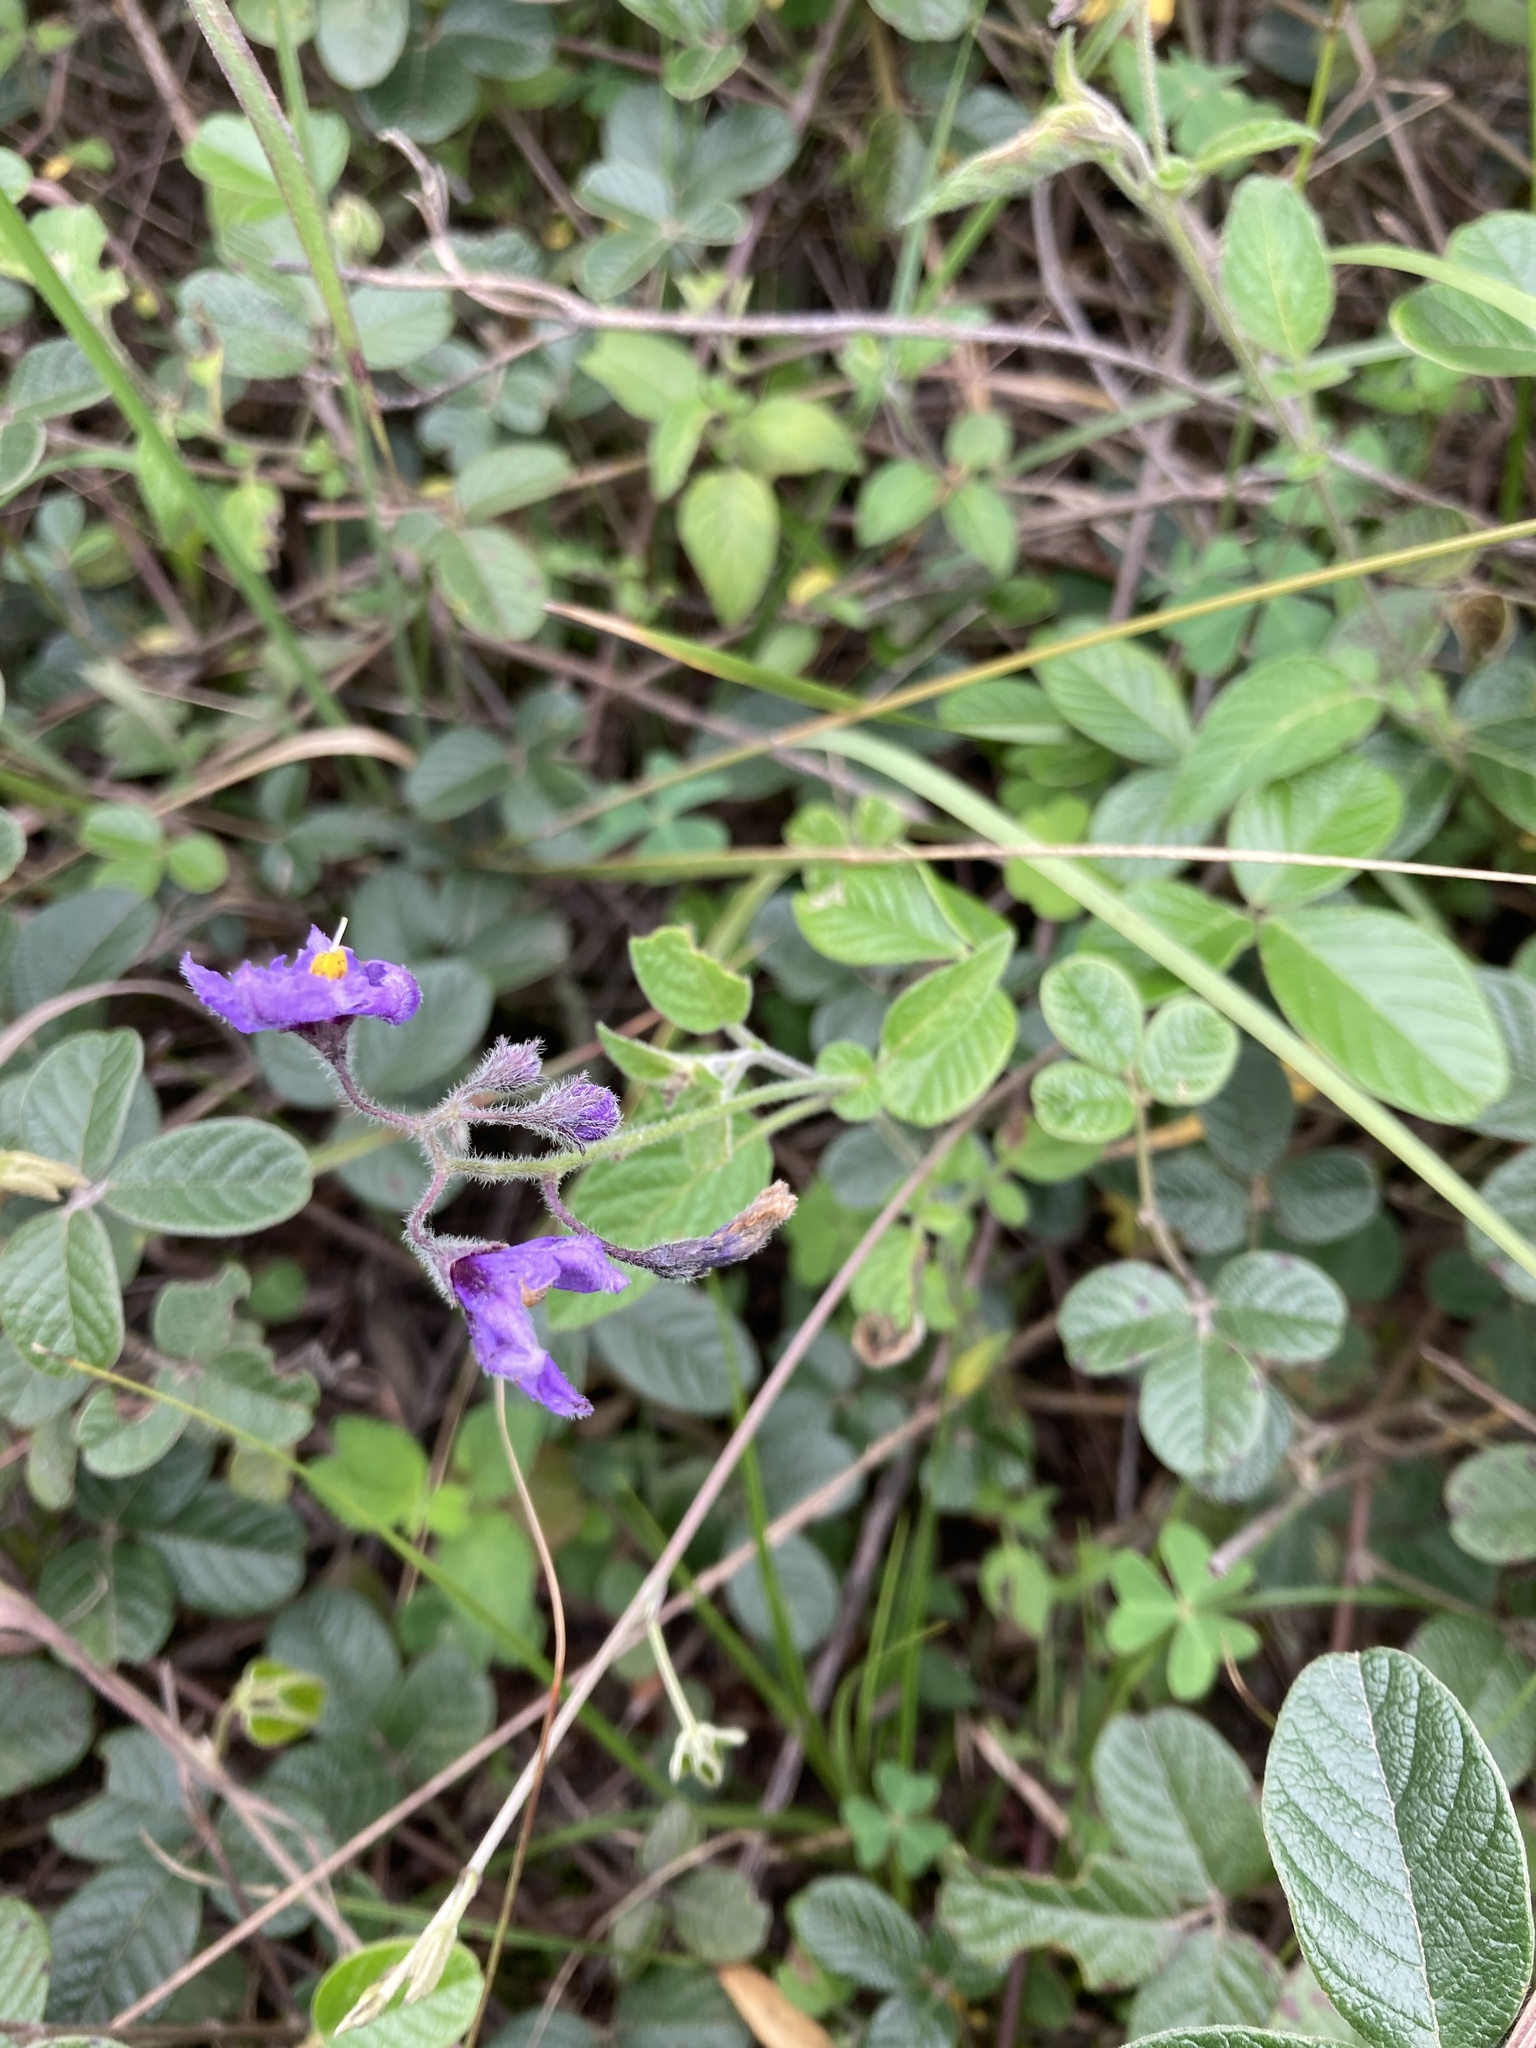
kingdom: Plantae
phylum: Tracheophyta
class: Magnoliopsida
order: Solanales
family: Solanaceae
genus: Solanum
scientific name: Solanum caripense
